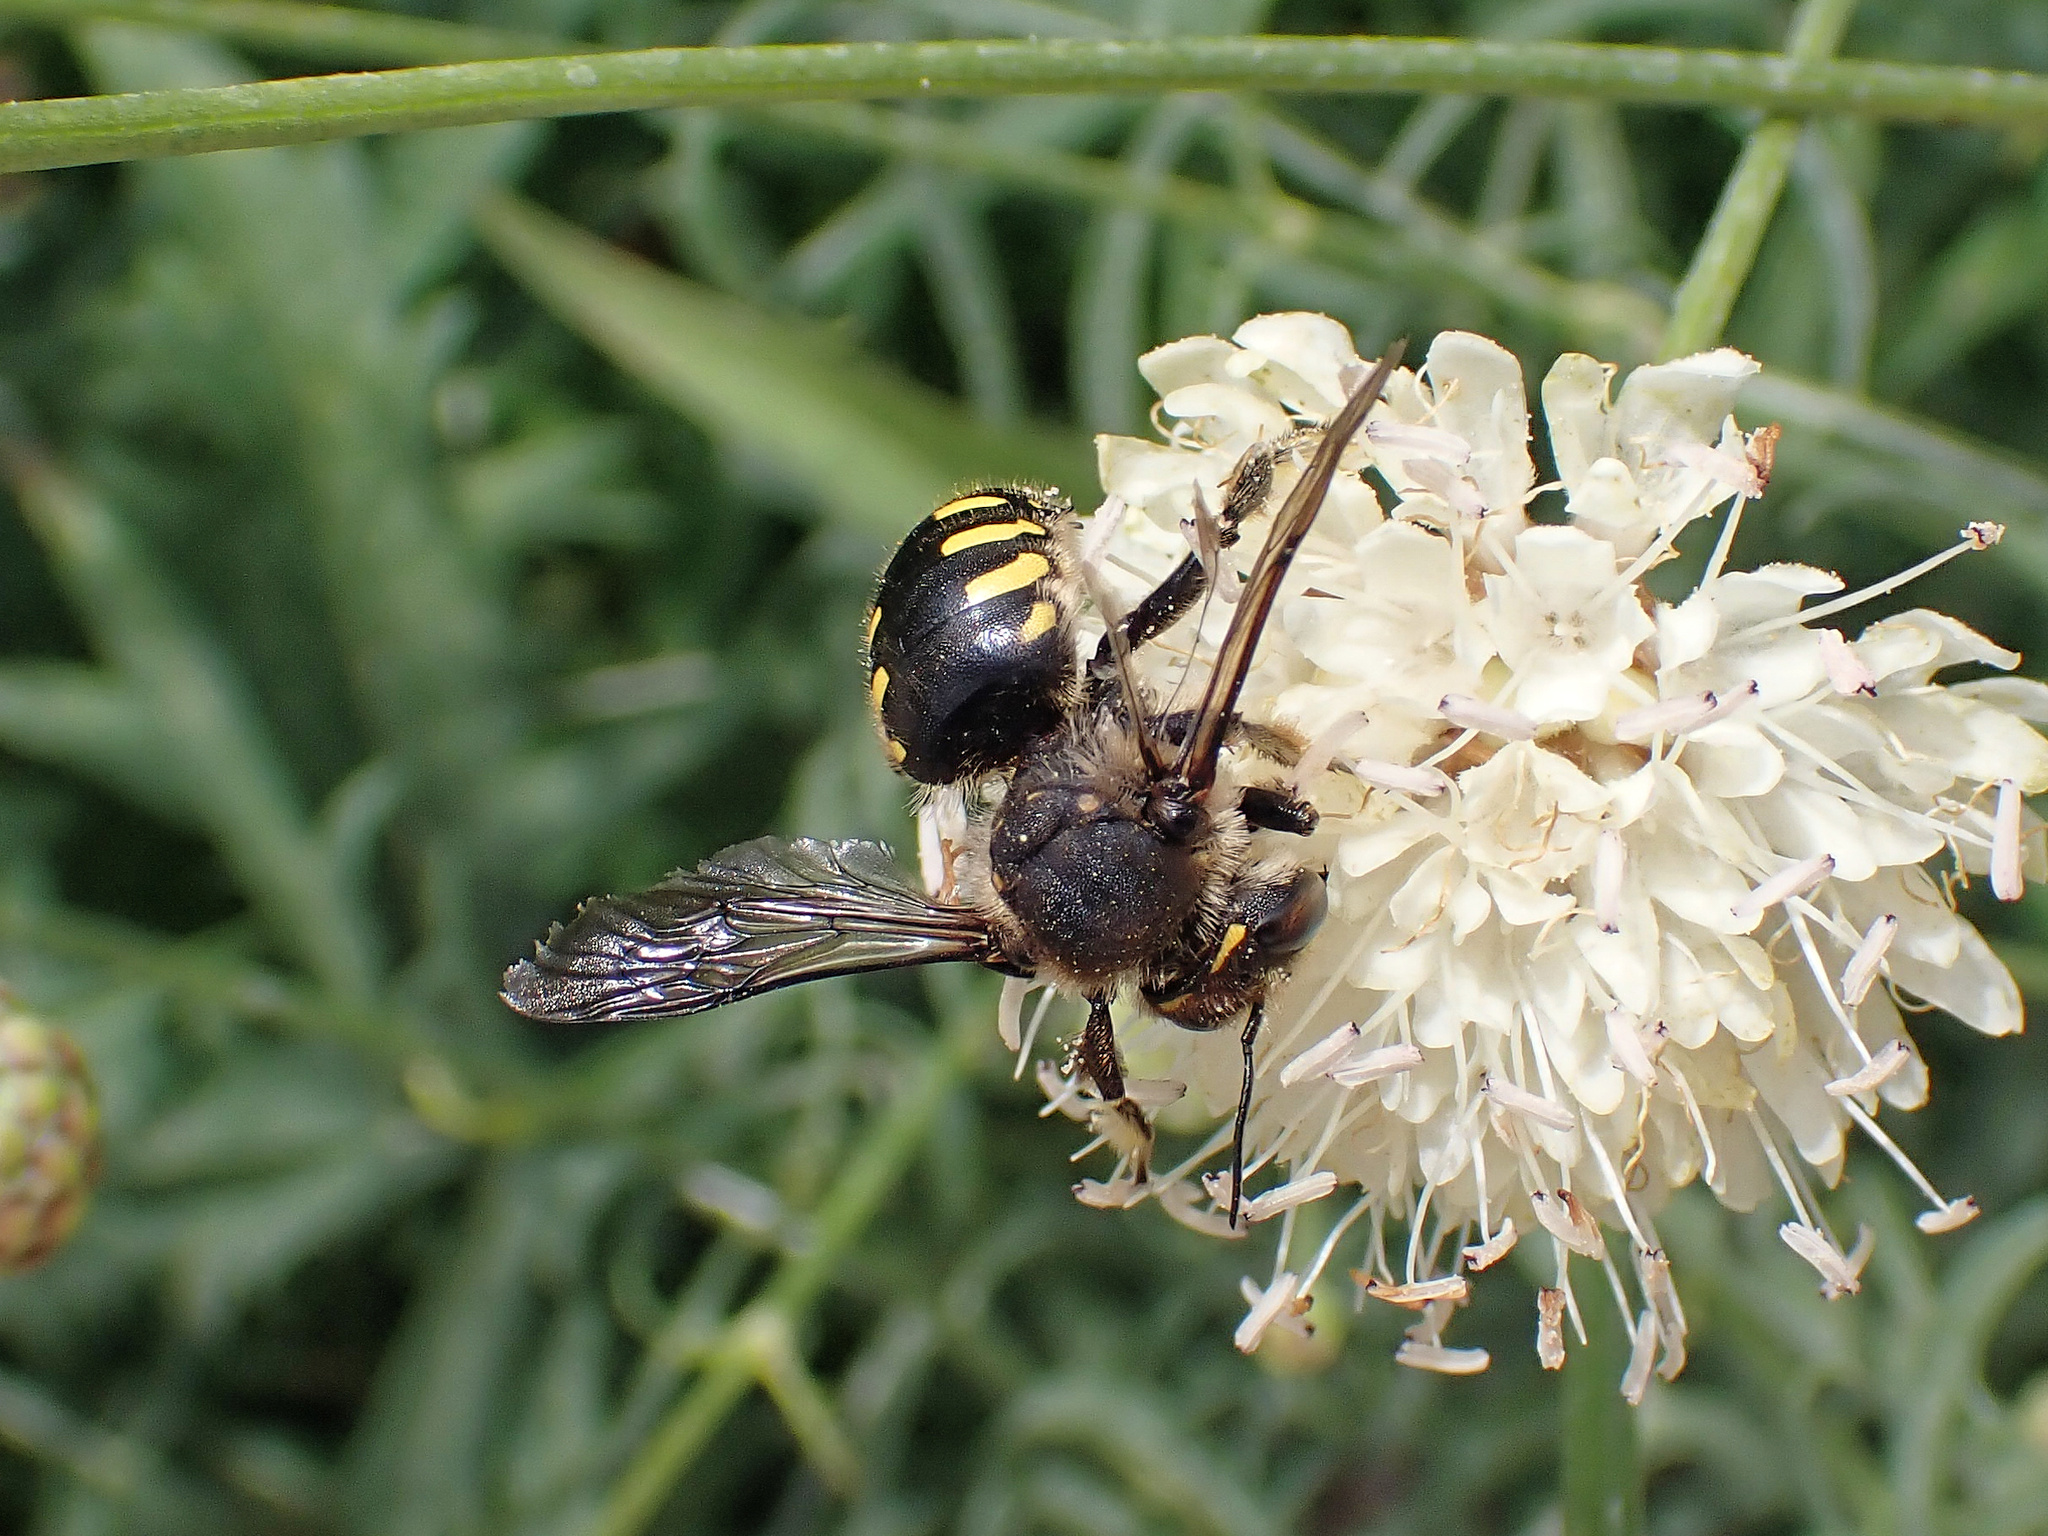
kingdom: Animalia
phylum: Arthropoda
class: Insecta
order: Hymenoptera
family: Megachilidae
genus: Anthidium
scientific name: Anthidium septemspinosum
